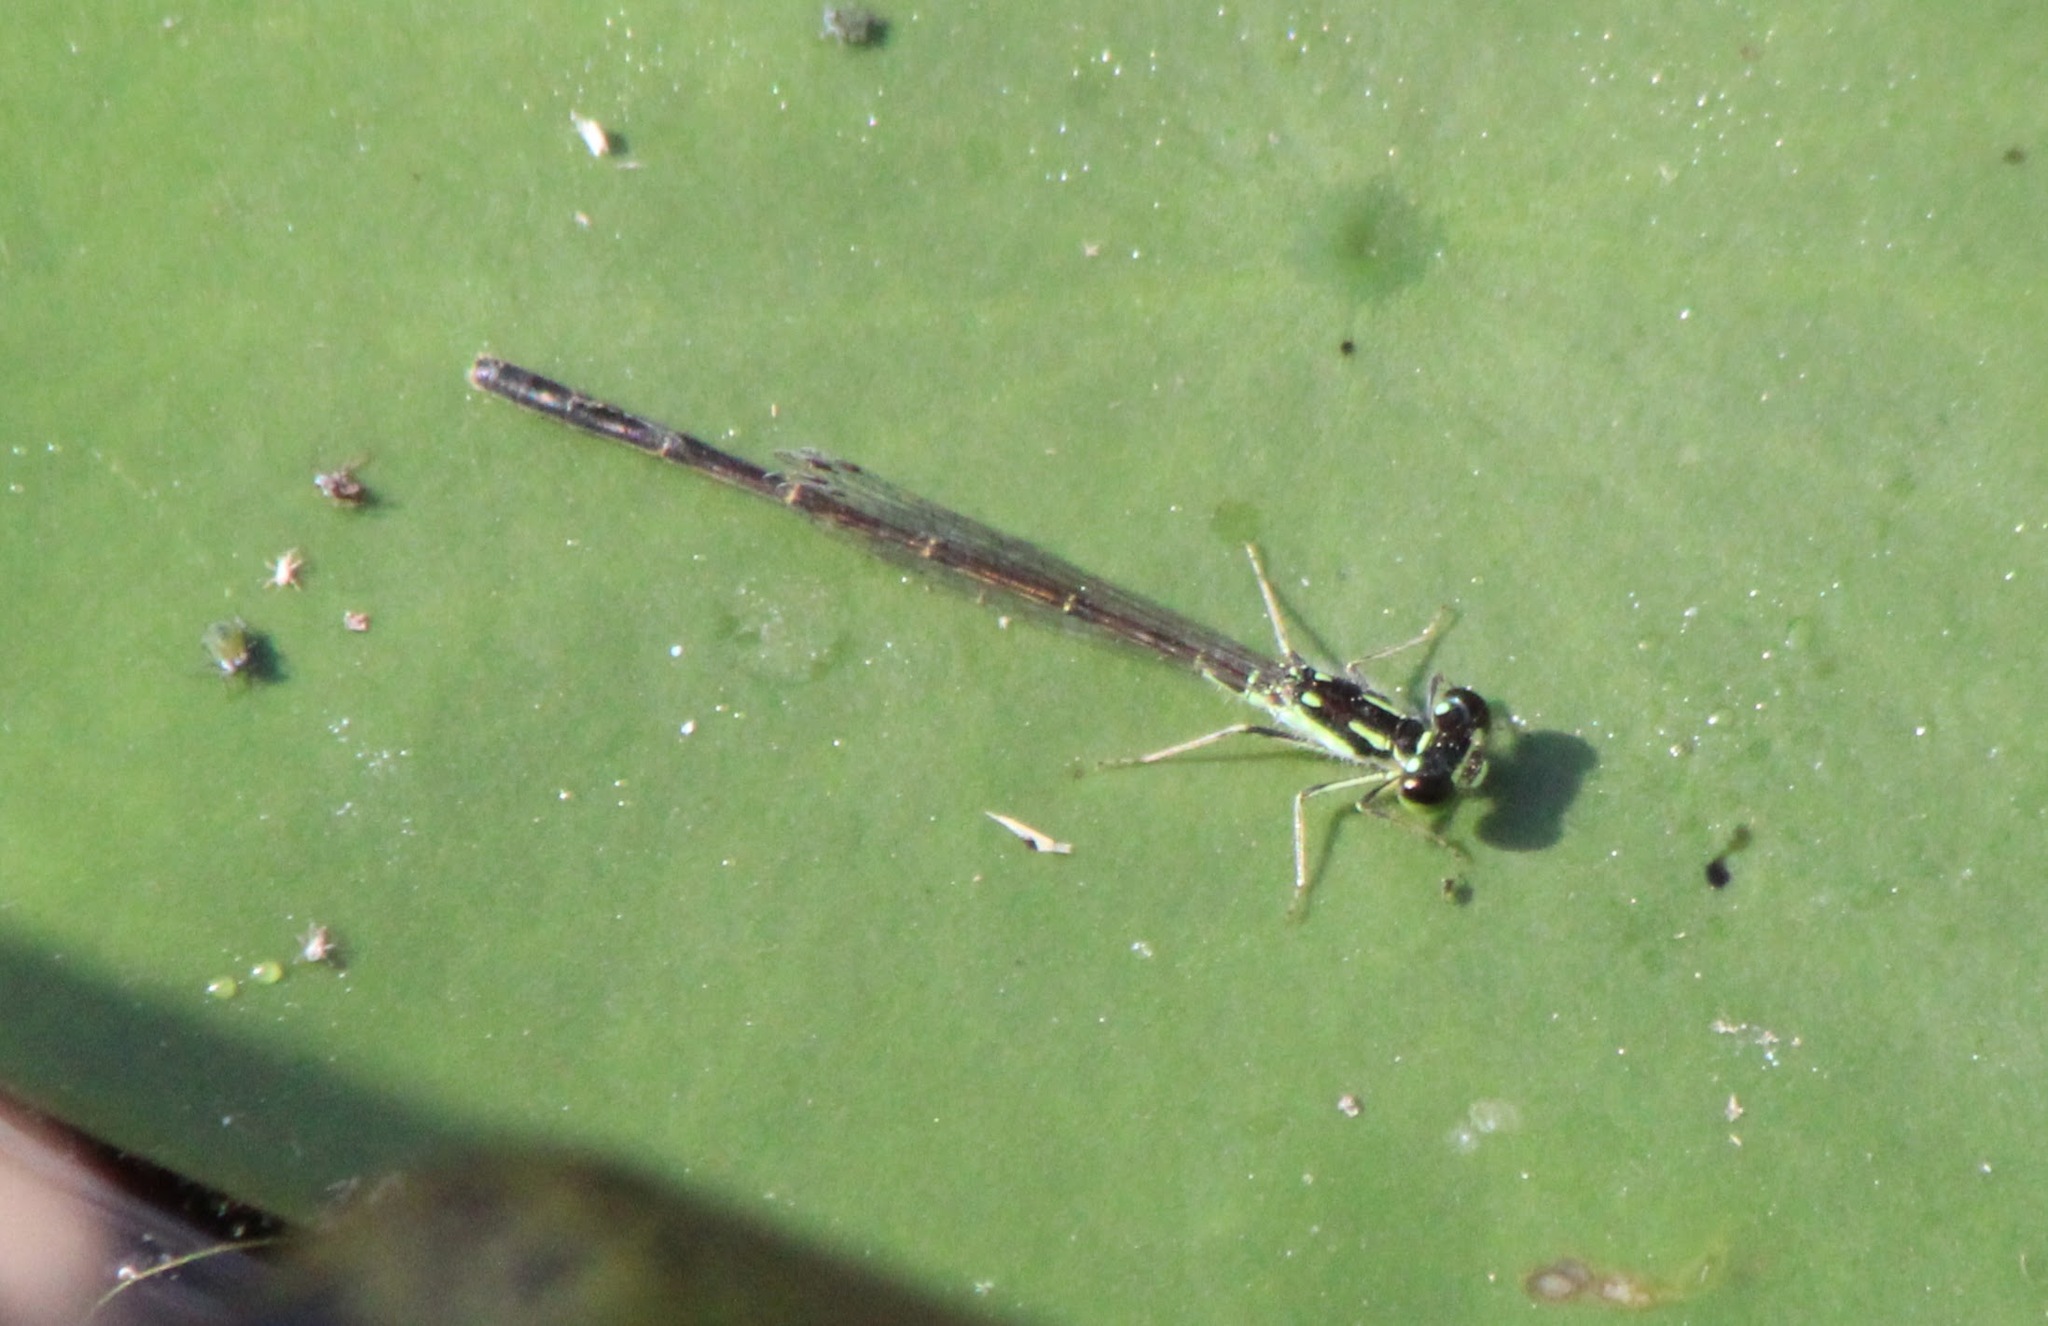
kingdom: Animalia
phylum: Arthropoda
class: Insecta
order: Odonata
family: Coenagrionidae
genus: Ischnura
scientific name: Ischnura posita
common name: Fragile forktail
